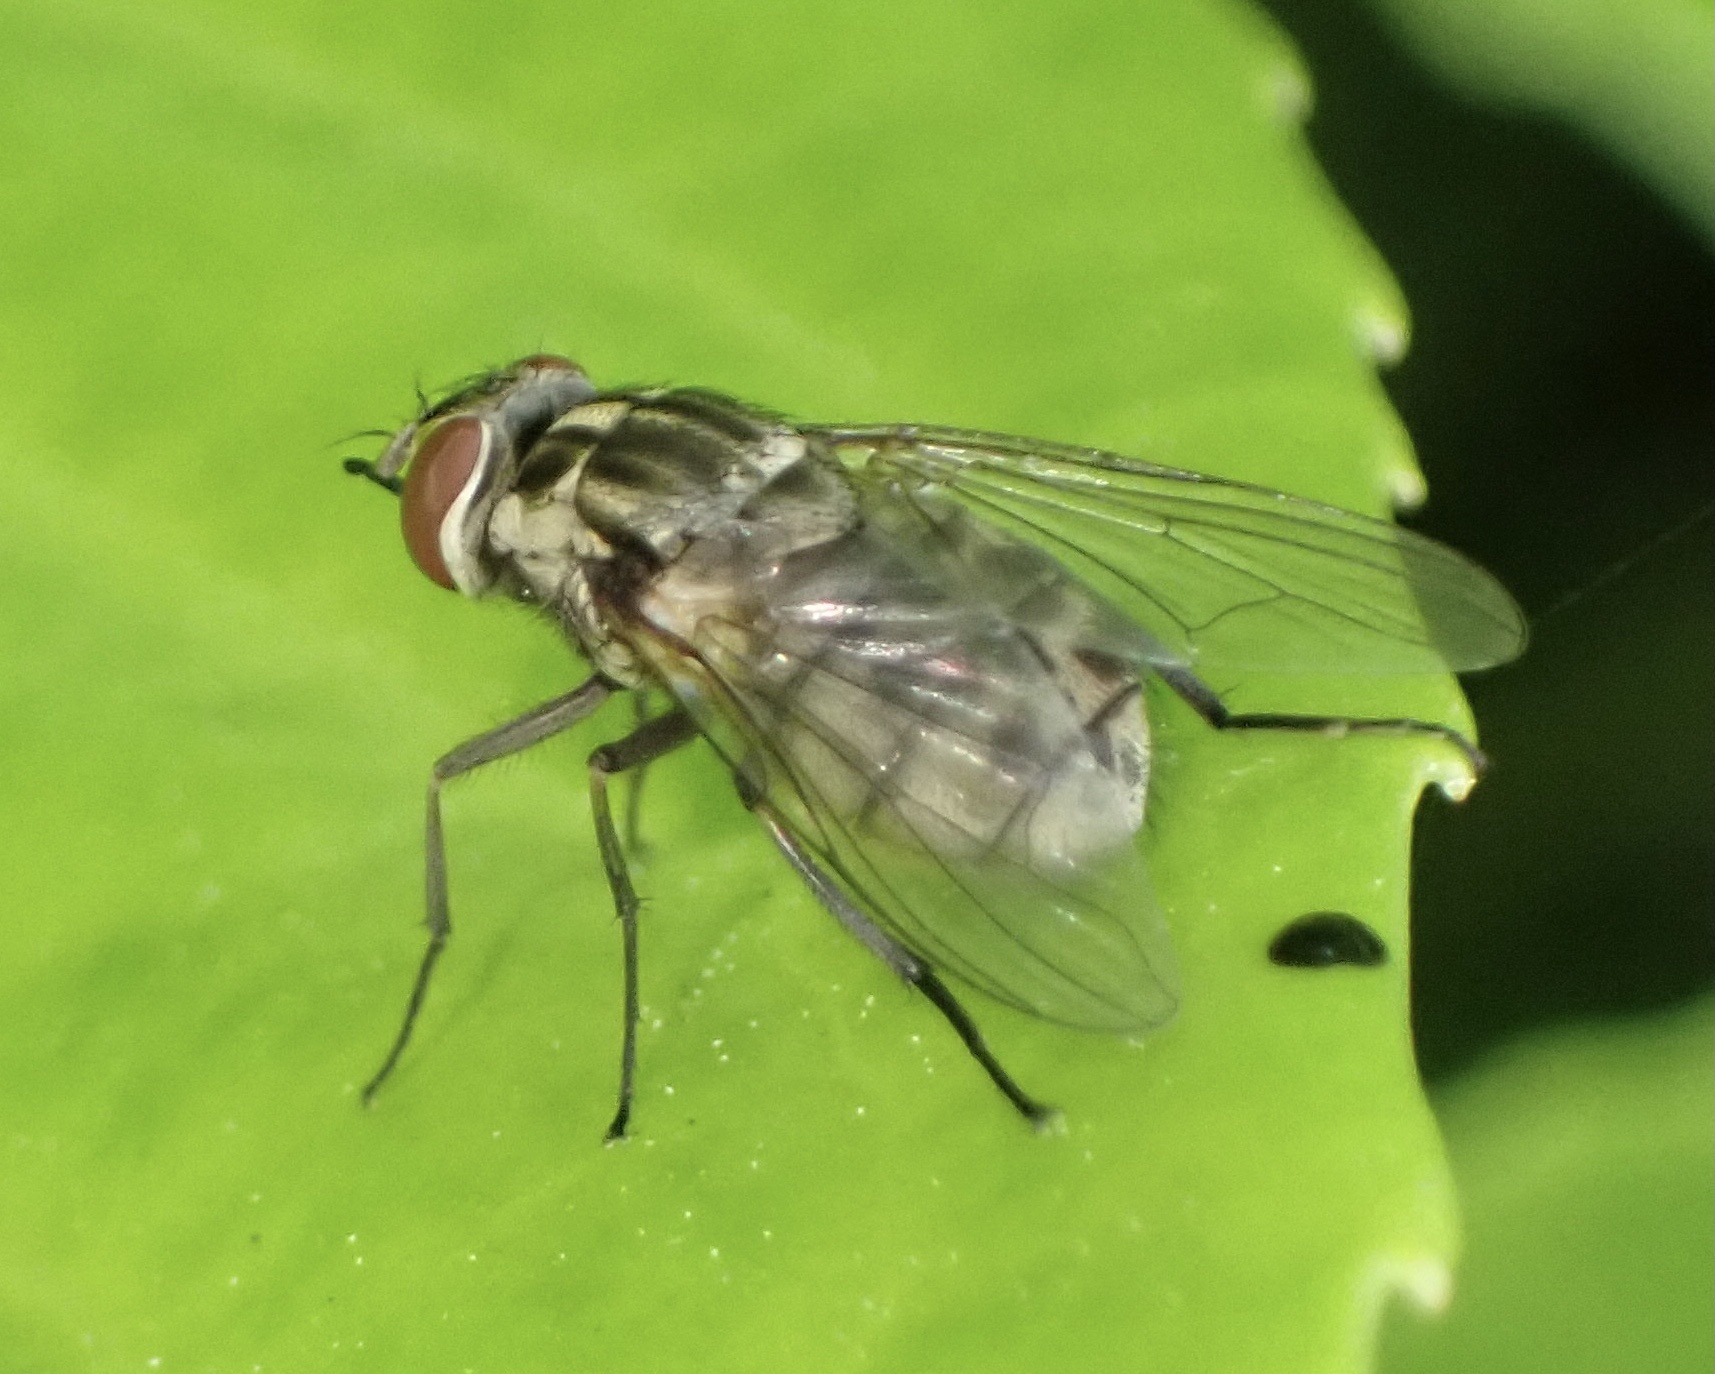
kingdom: Animalia
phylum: Arthropoda
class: Insecta
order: Diptera
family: Muscidae
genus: Stomoxys
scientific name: Stomoxys calcitrans
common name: Stable fly
